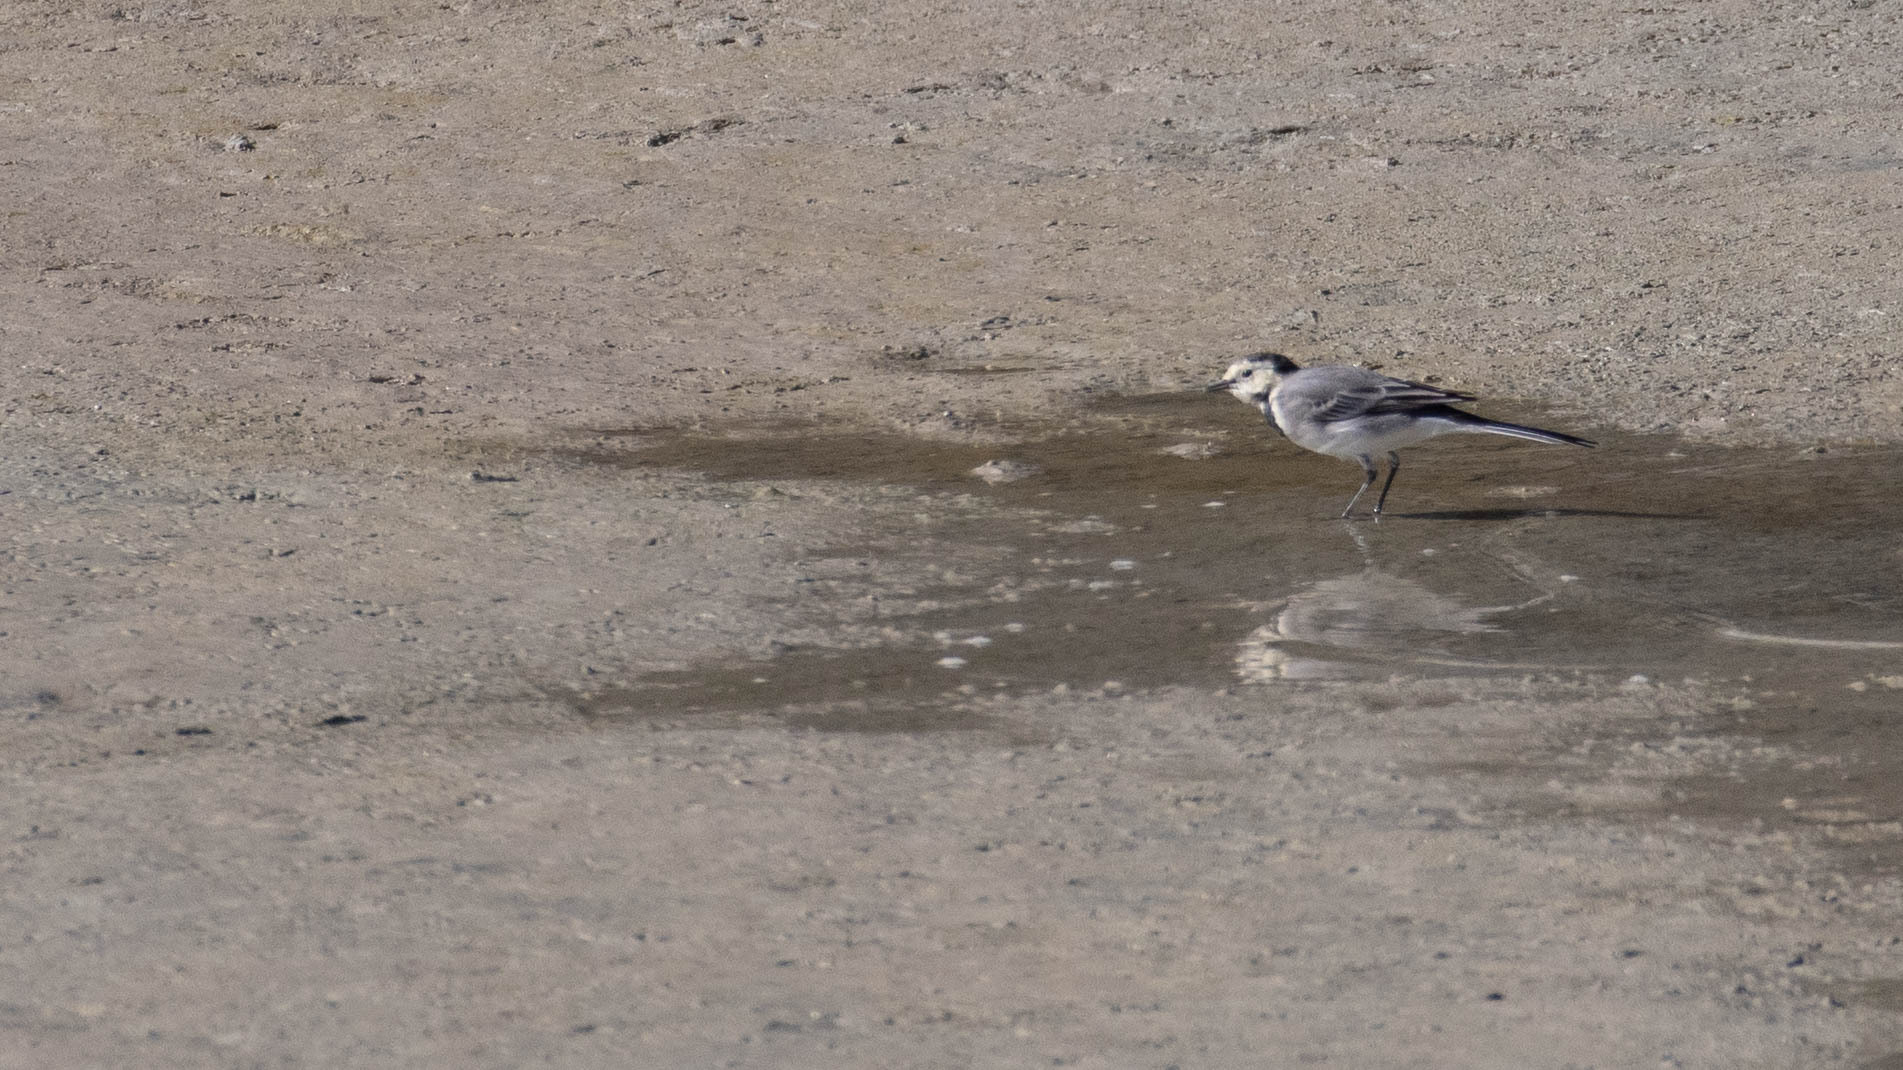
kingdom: Animalia
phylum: Chordata
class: Aves
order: Passeriformes
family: Motacillidae
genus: Motacilla
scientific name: Motacilla alba
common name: White wagtail
